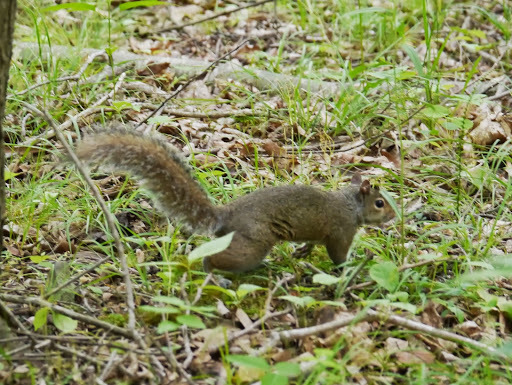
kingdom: Animalia
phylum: Chordata
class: Mammalia
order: Rodentia
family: Sciuridae
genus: Sciurus
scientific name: Sciurus carolinensis
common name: Eastern gray squirrel
